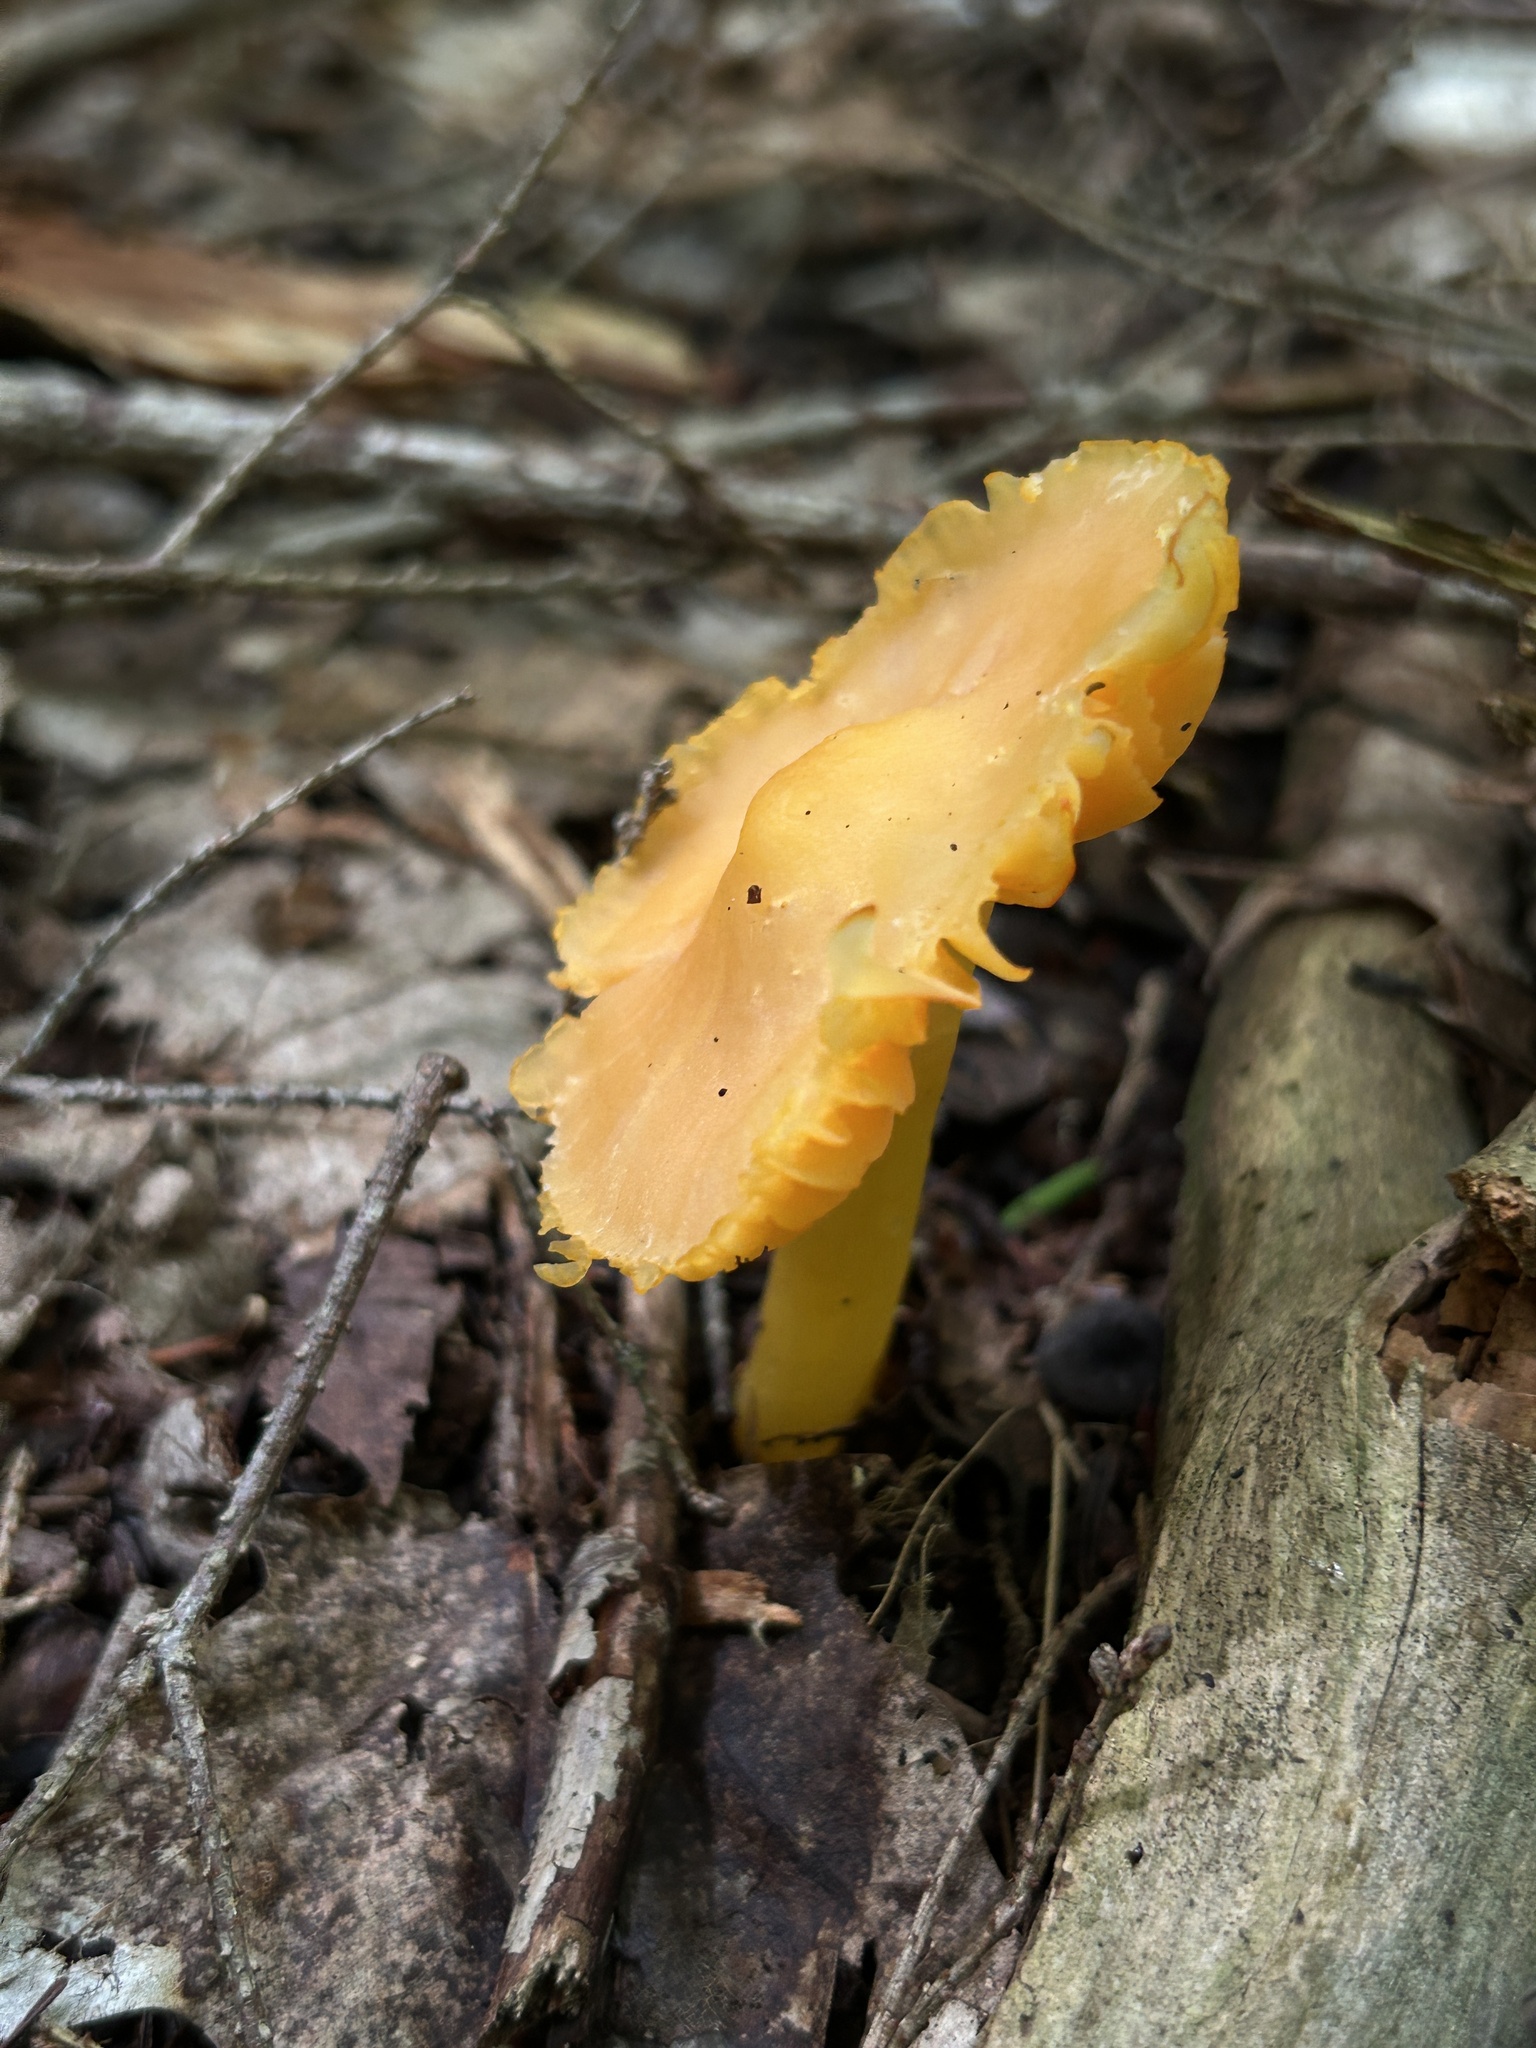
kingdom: Fungi
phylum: Basidiomycota
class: Agaricomycetes
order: Agaricales
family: Hygrophoraceae
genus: Humidicutis
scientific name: Humidicutis marginata
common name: Orange gilled waxcap
